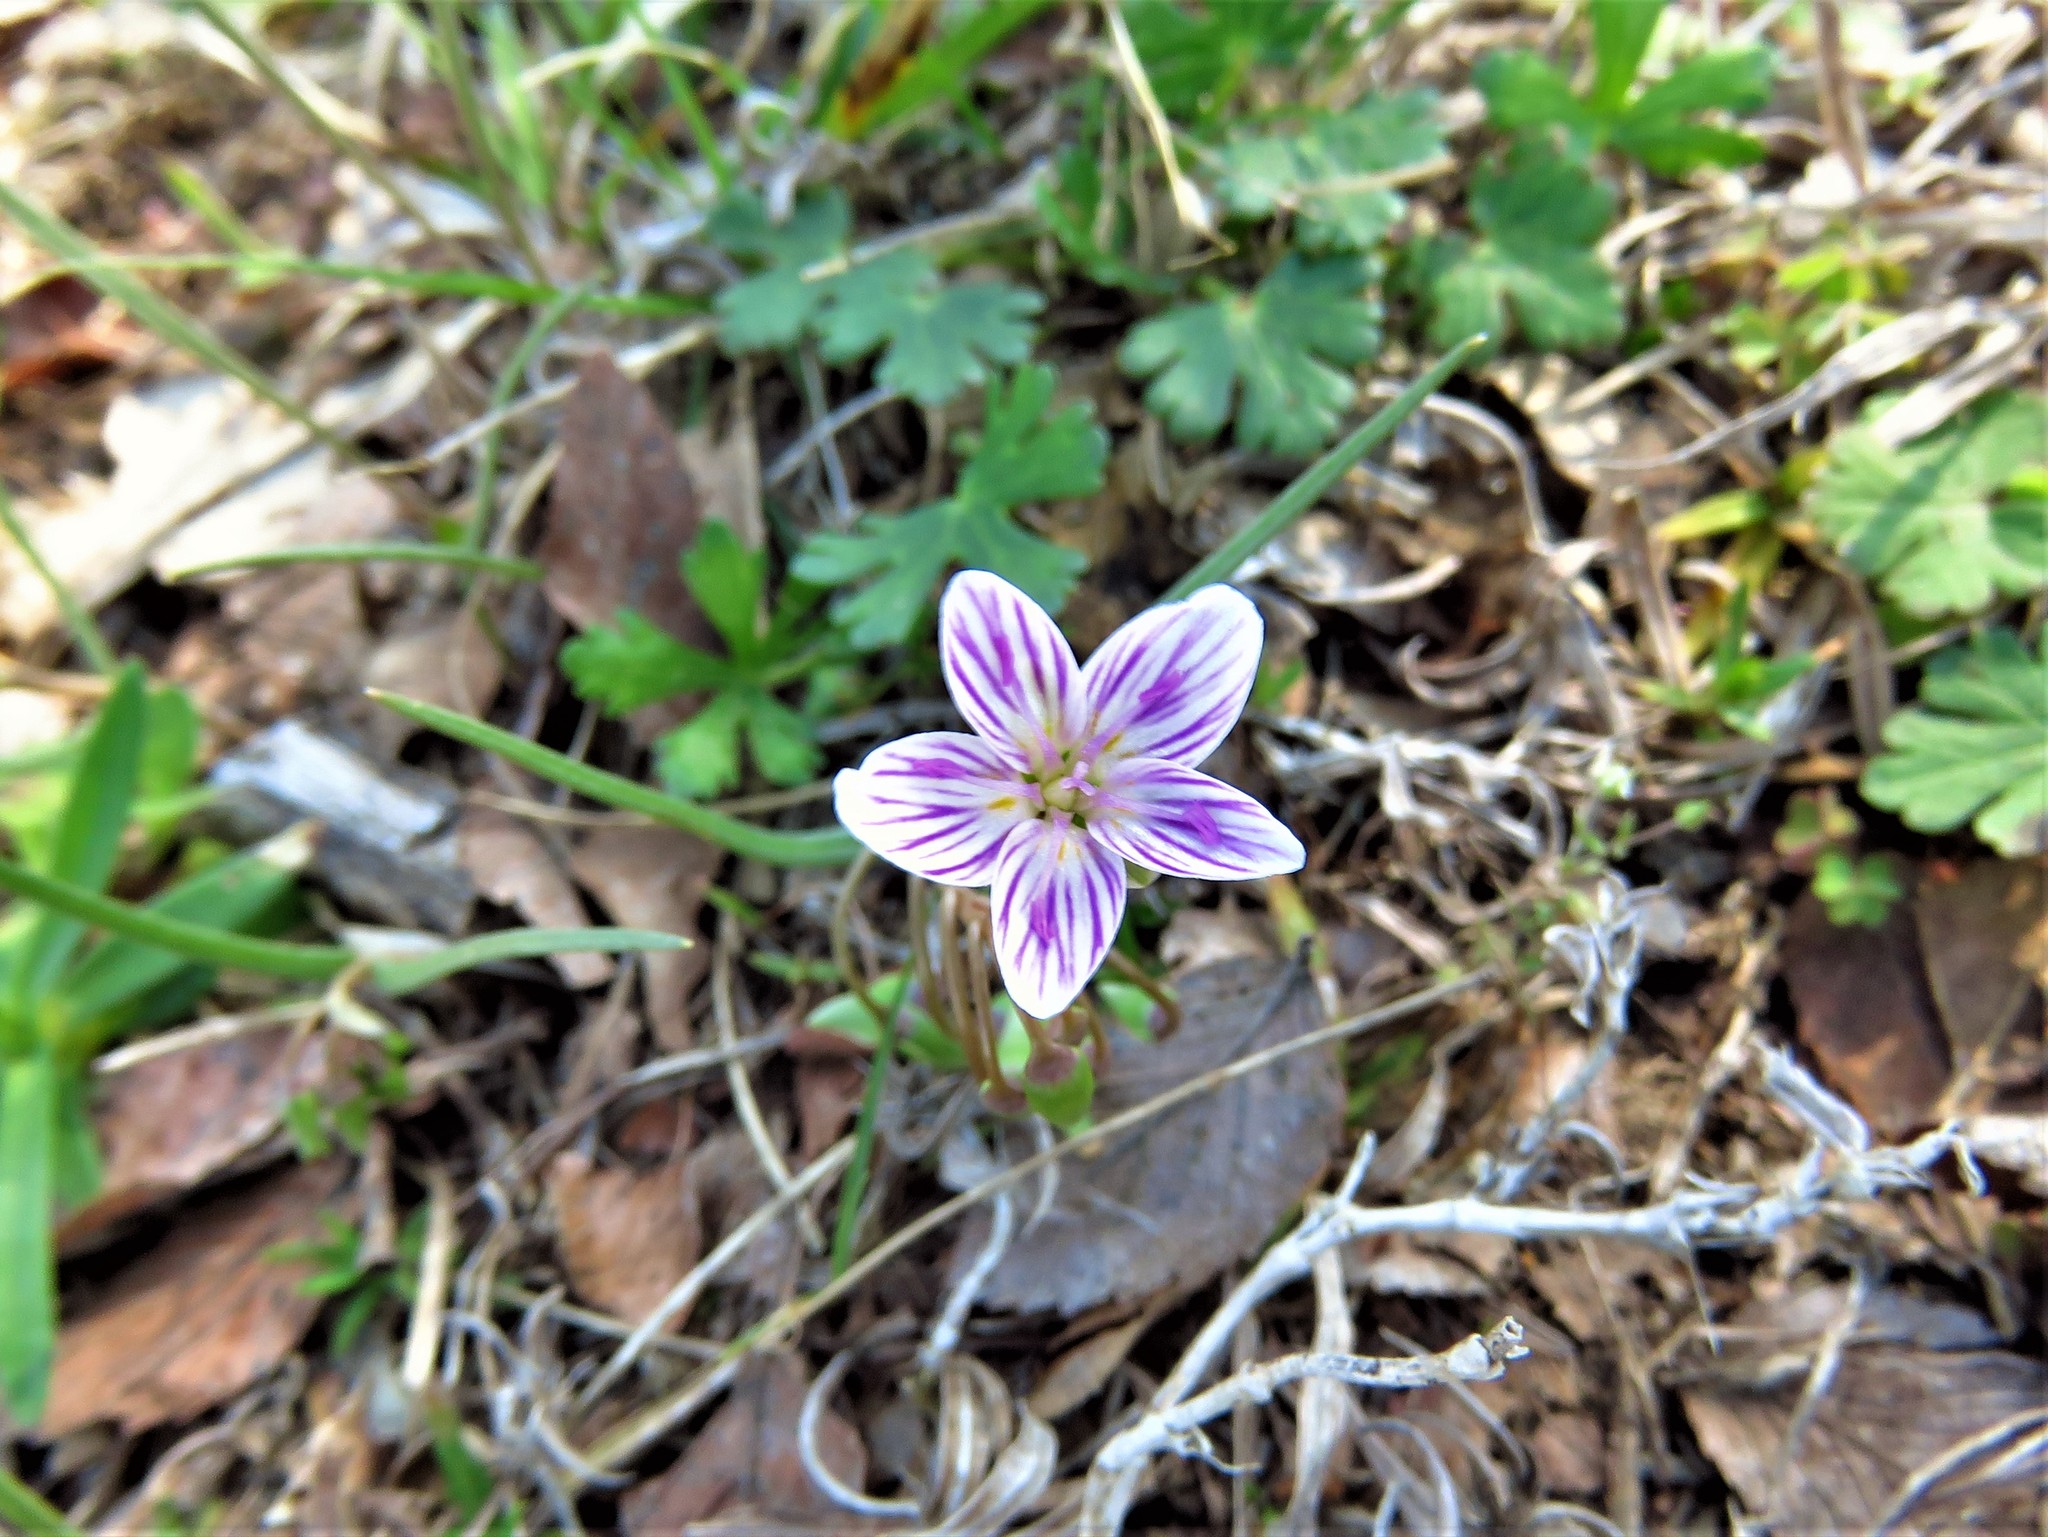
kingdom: Plantae
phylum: Tracheophyta
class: Magnoliopsida
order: Caryophyllales
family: Montiaceae
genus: Claytonia
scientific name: Claytonia virginica
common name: Virginia springbeauty
